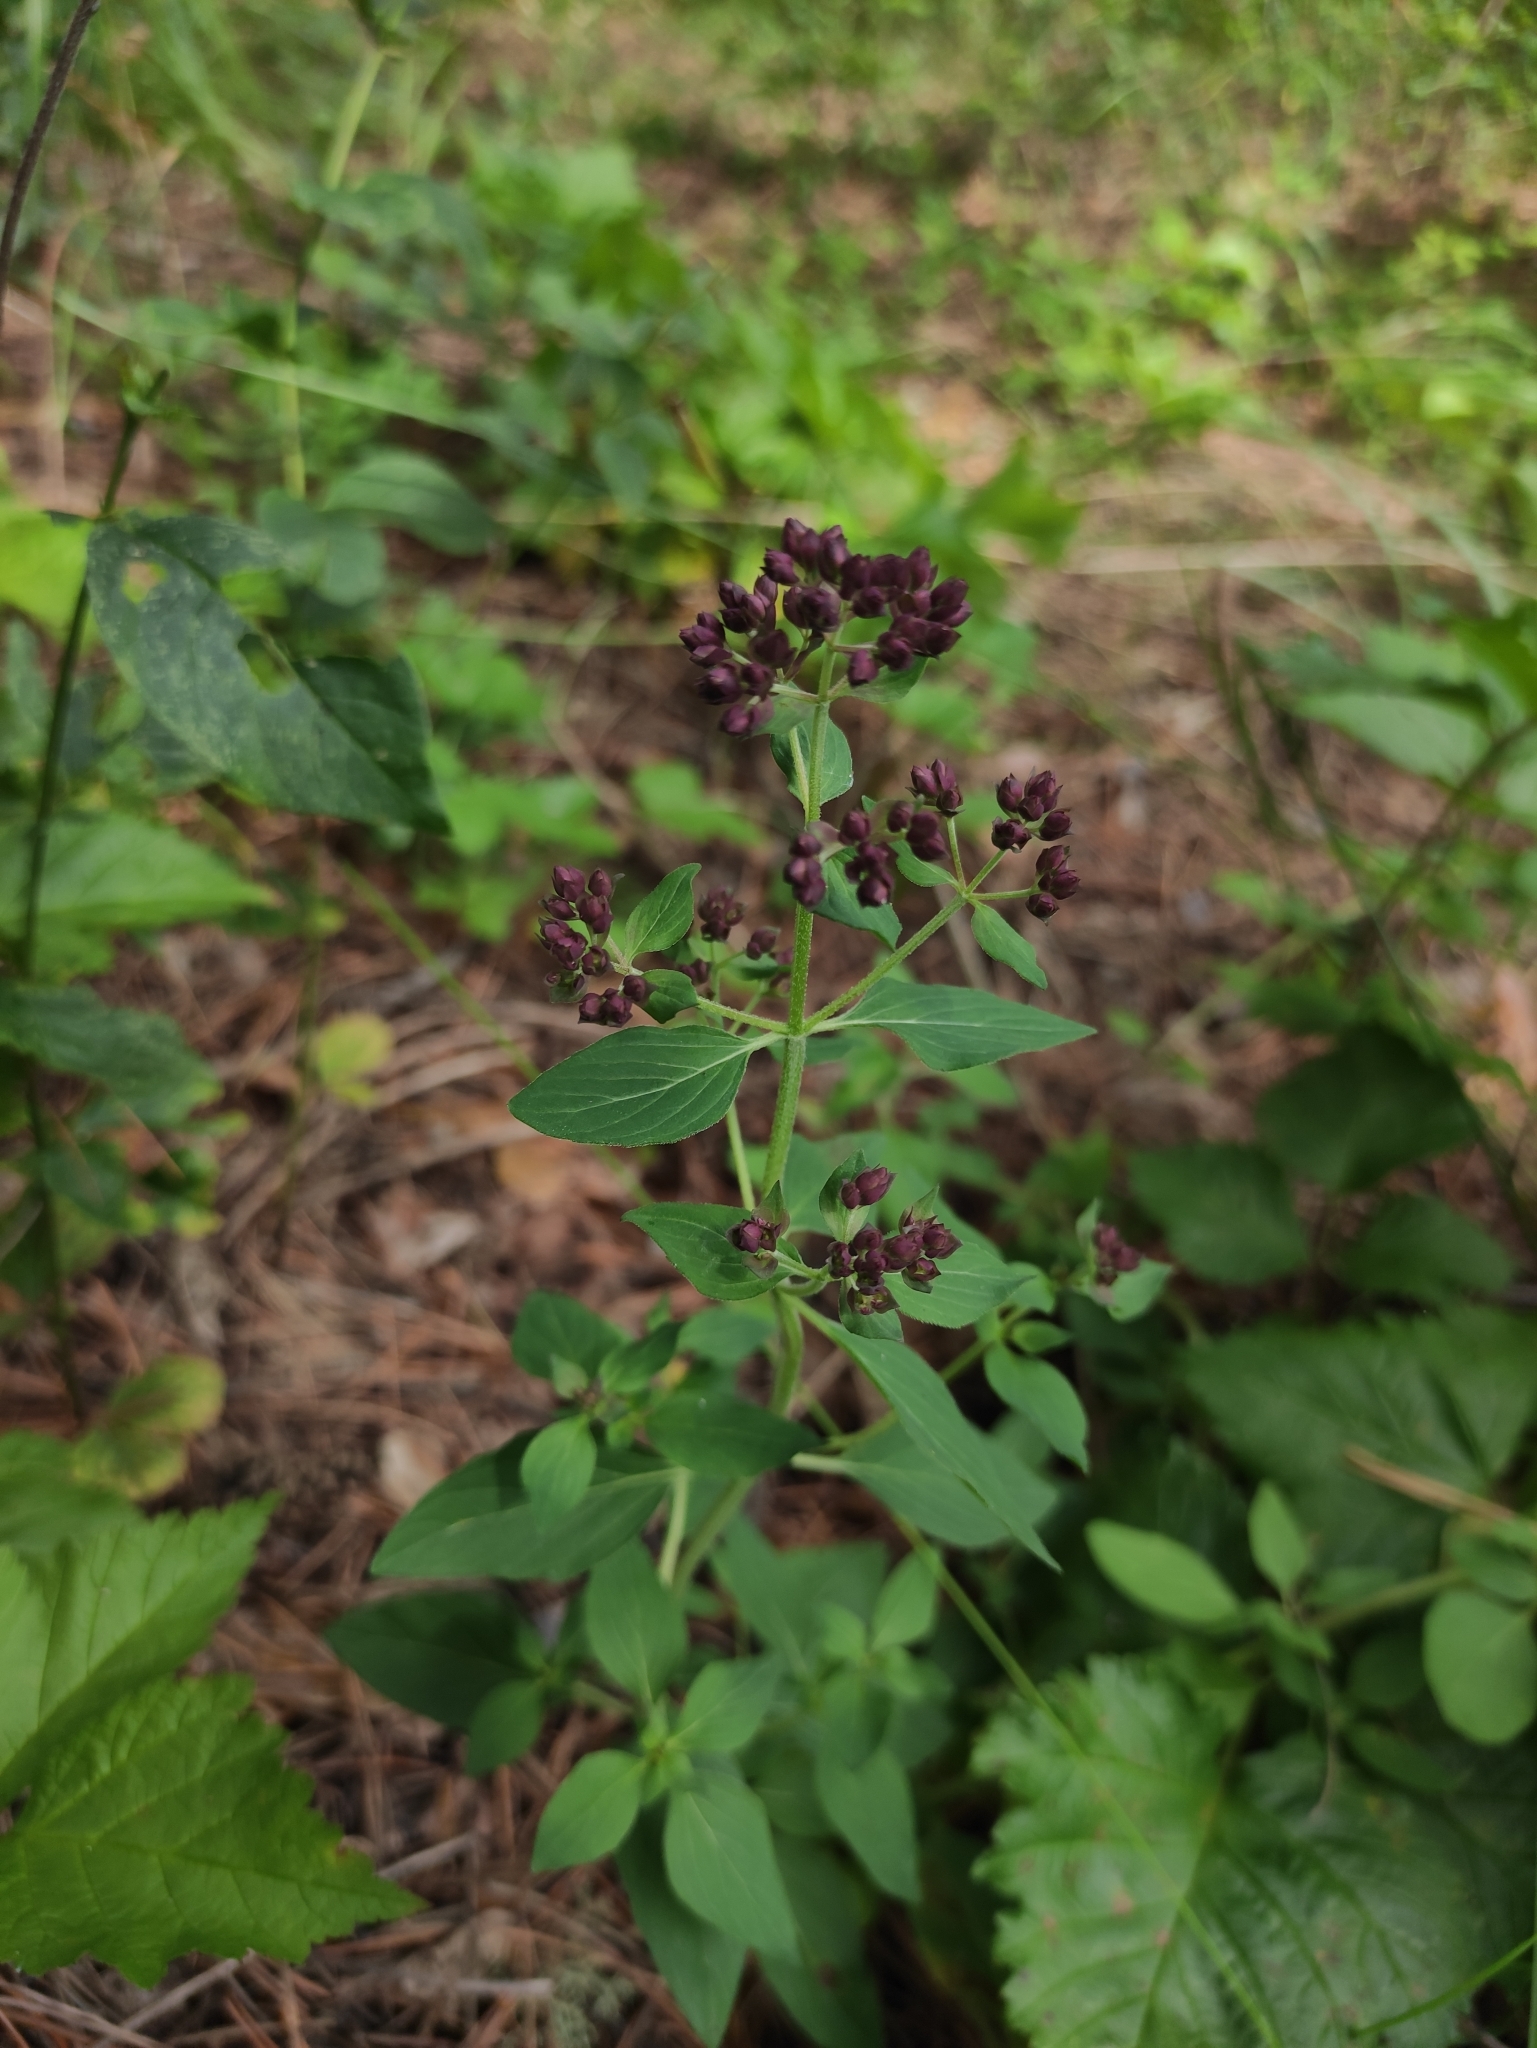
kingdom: Plantae
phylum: Tracheophyta
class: Magnoliopsida
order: Lamiales
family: Lamiaceae
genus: Origanum
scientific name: Origanum vulgare
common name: Wild marjoram
